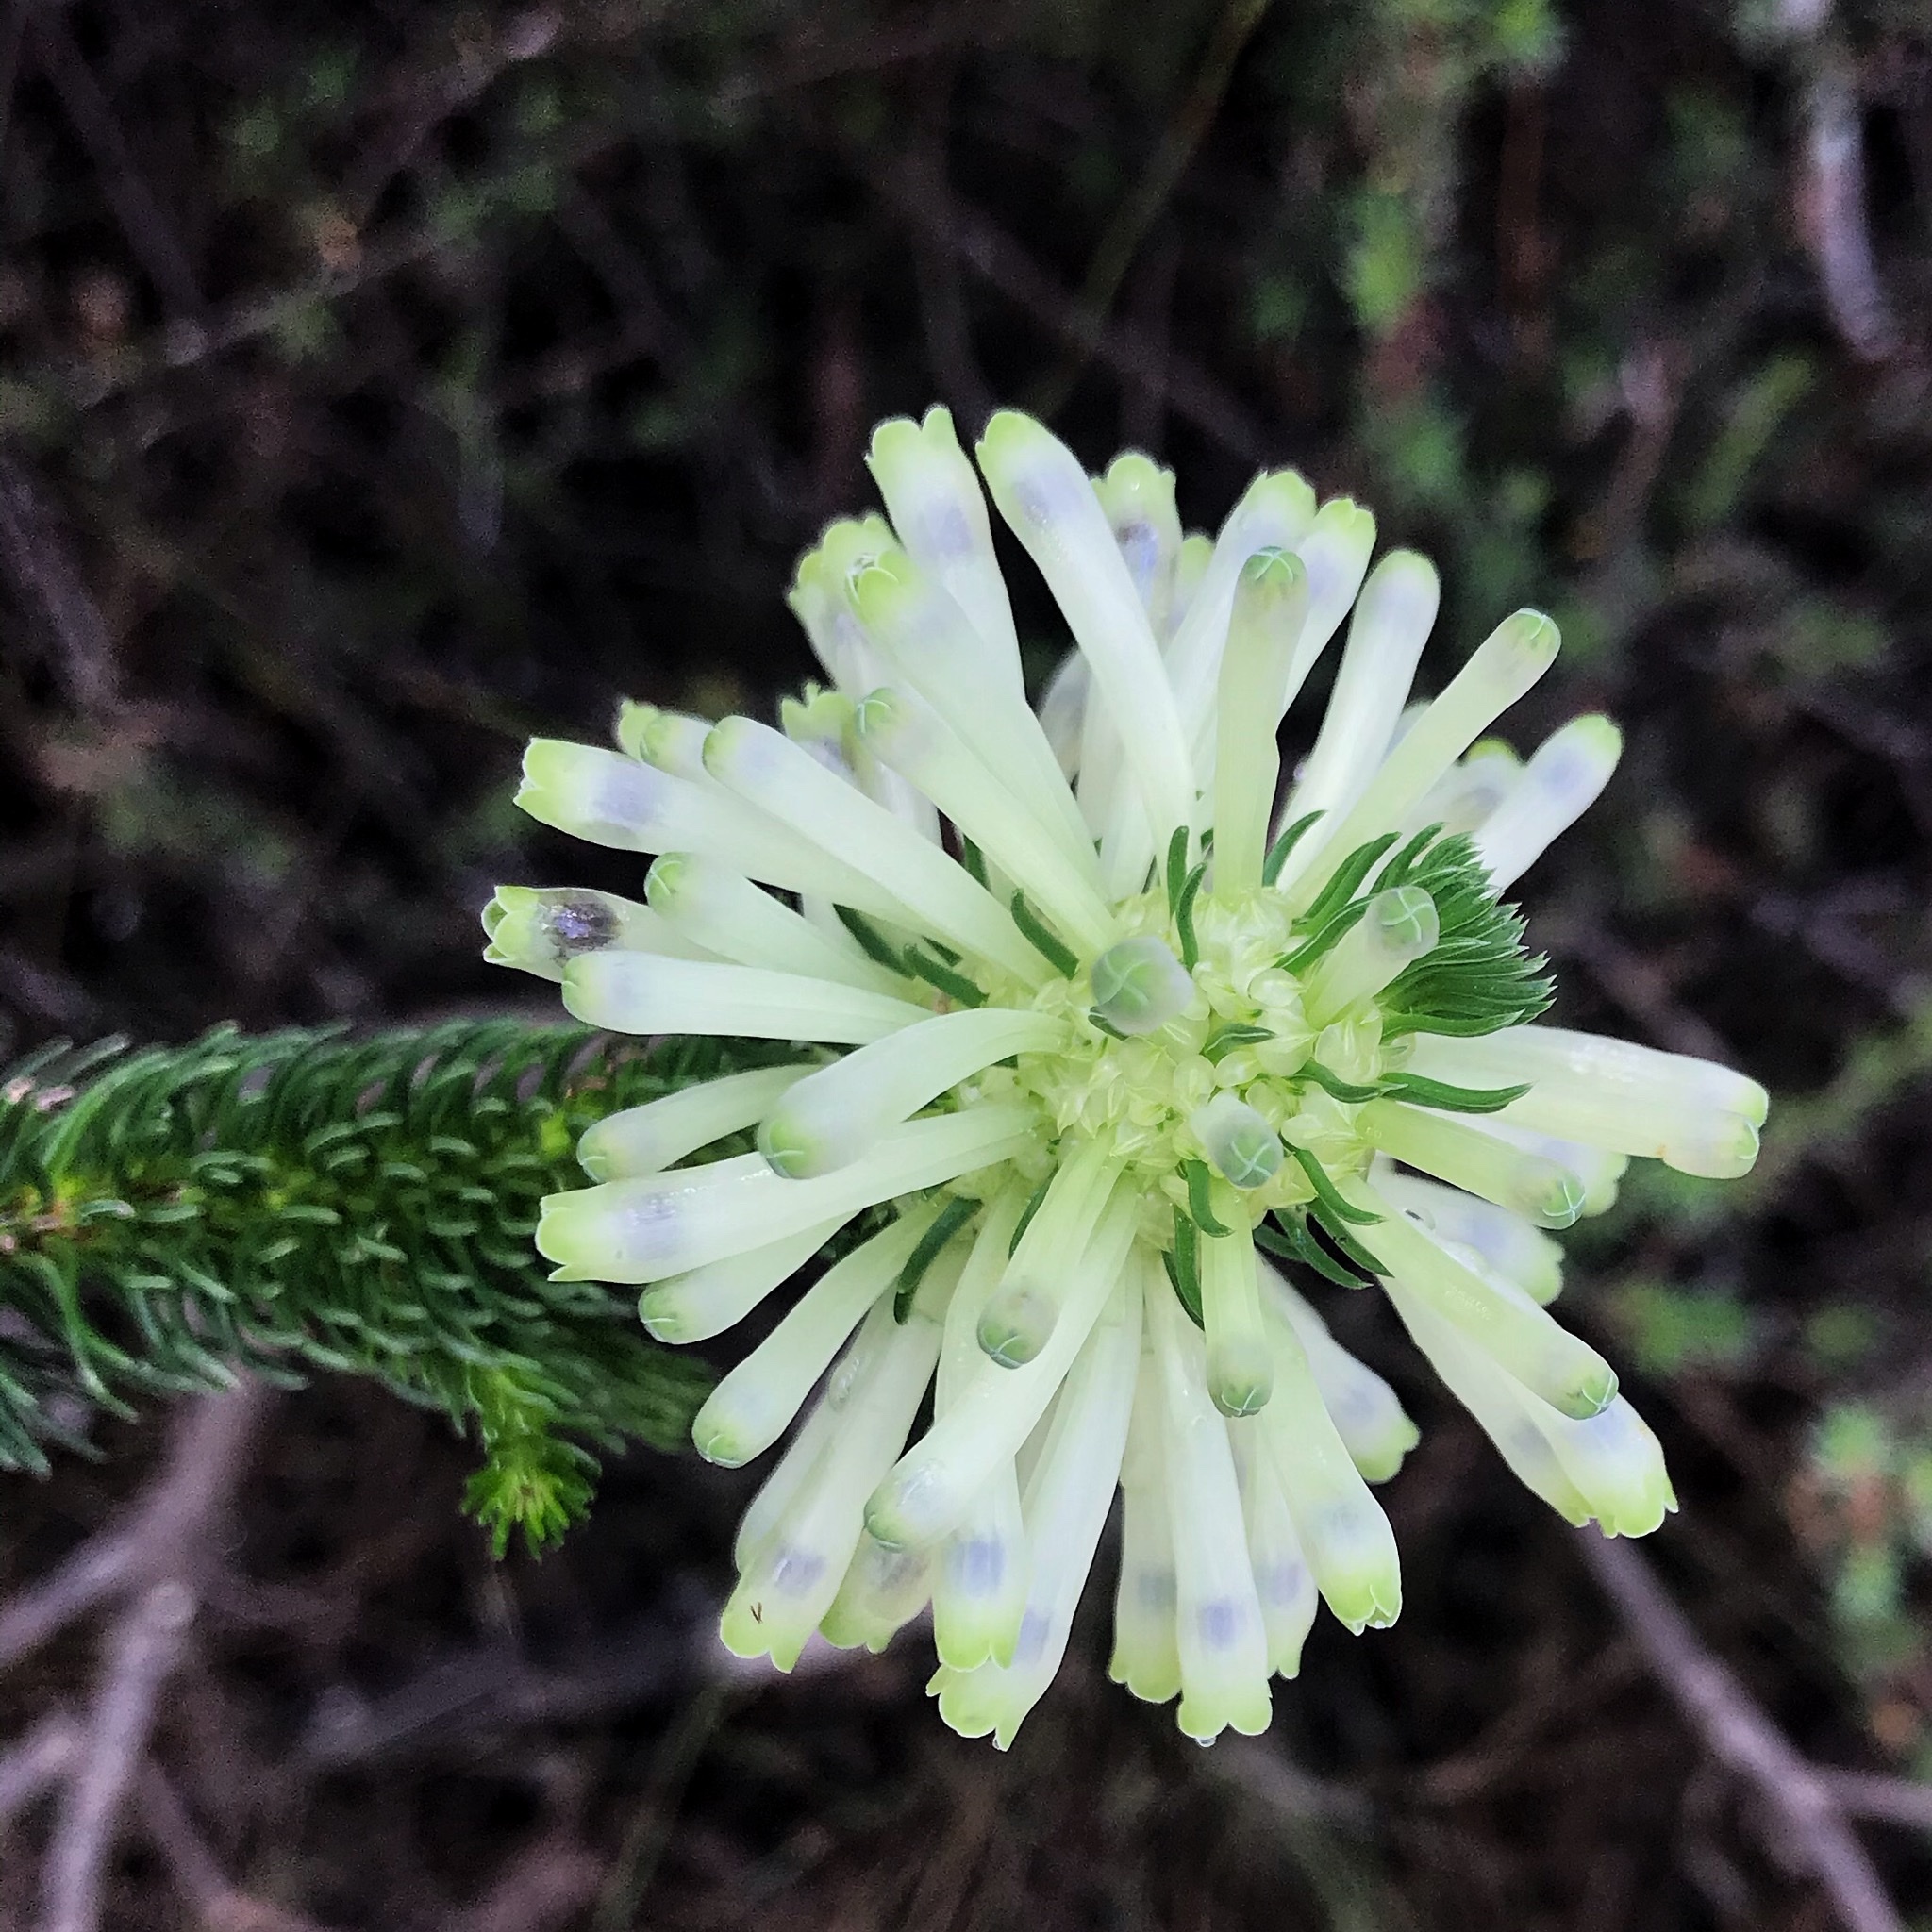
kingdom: Plantae
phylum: Tracheophyta
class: Magnoliopsida
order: Ericales
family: Ericaceae
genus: Erica
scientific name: Erica sessiliflora
